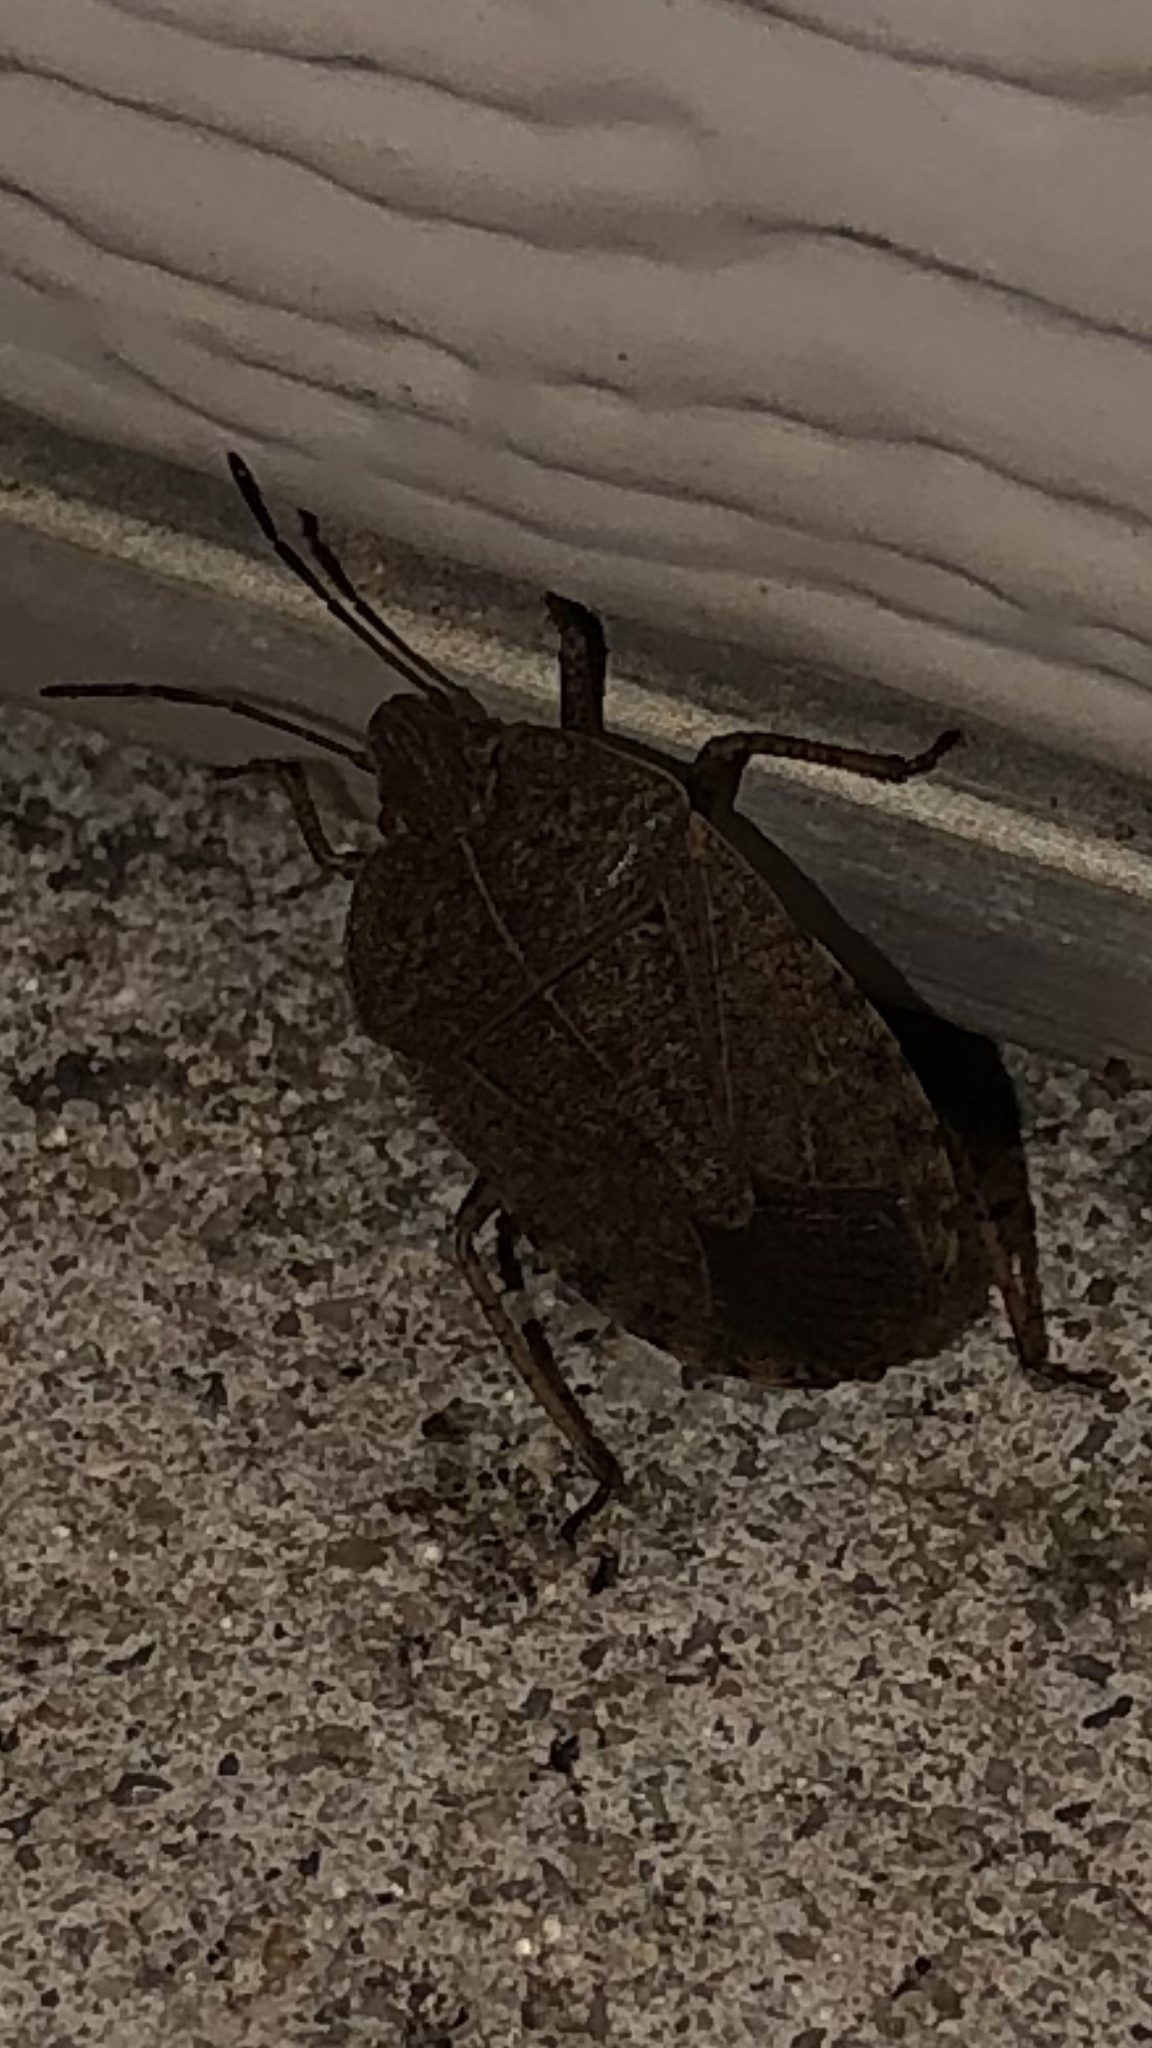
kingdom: Animalia
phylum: Arthropoda
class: Insecta
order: Hemiptera
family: Pentatomidae
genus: Menecles
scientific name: Menecles insertus
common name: Elf shoe stink bug
